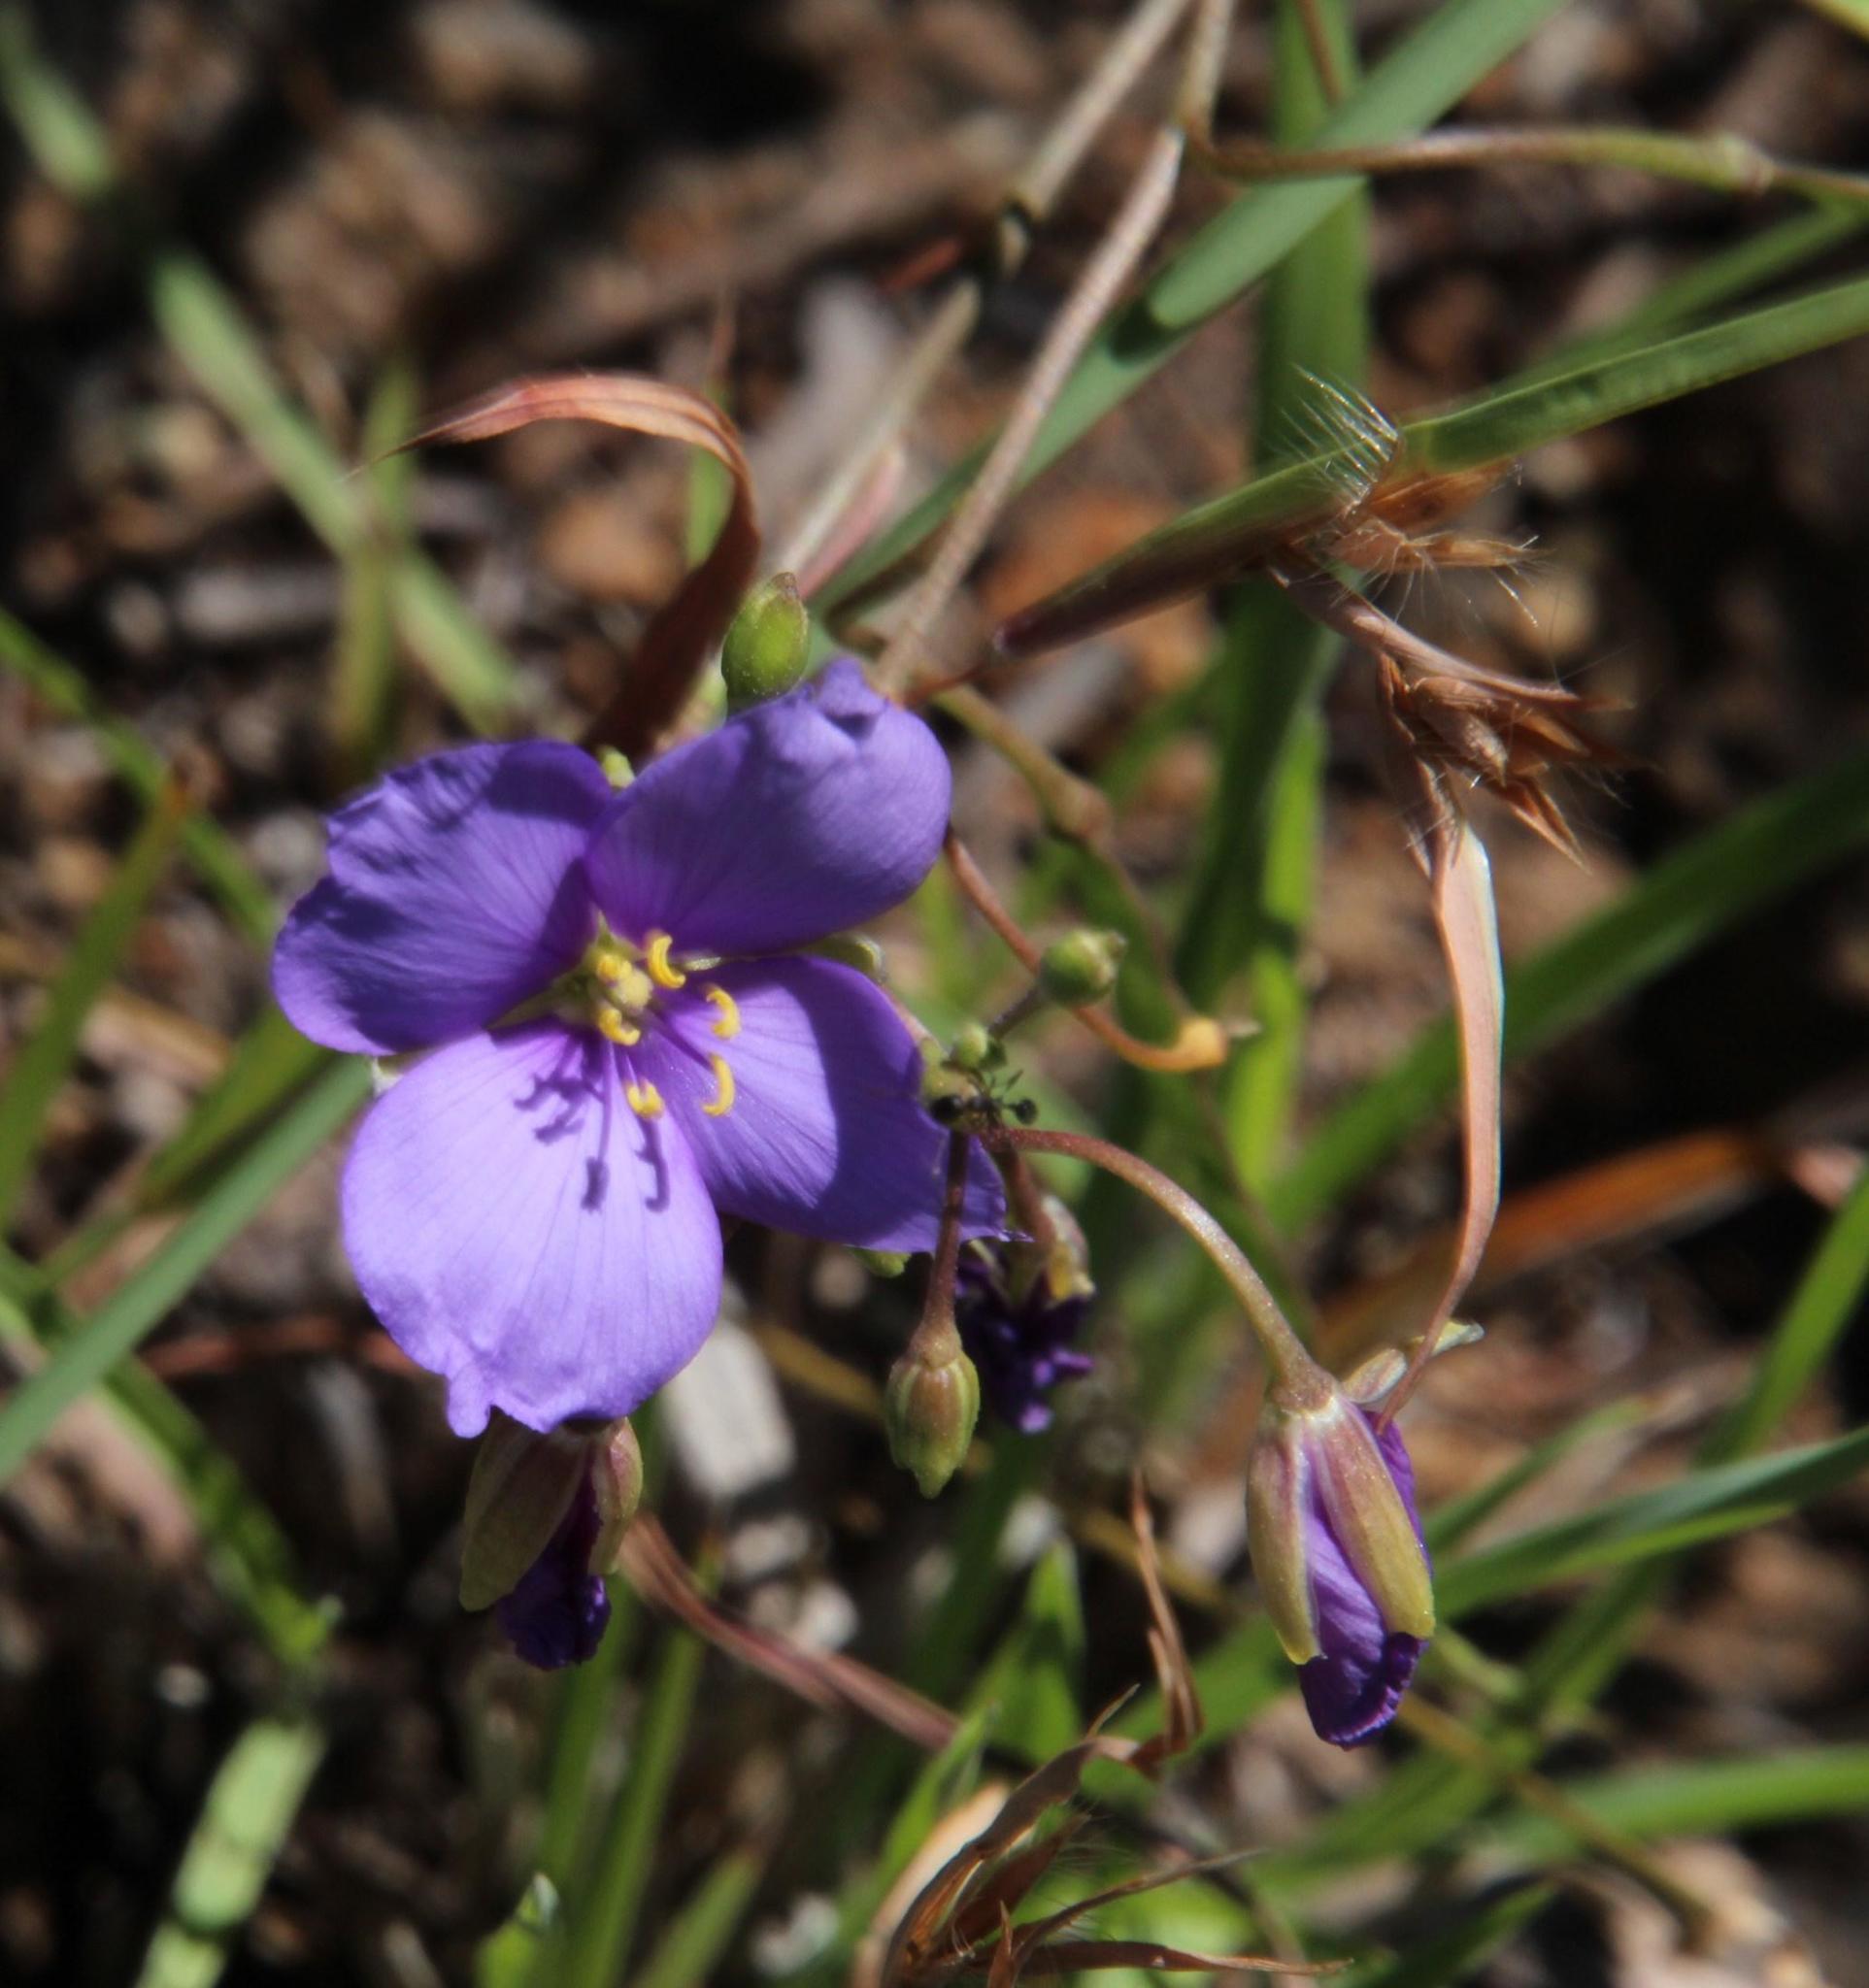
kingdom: Plantae
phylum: Tracheophyta
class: Magnoliopsida
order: Brassicales
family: Brassicaceae
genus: Heliophila
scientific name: Heliophila suavissima
